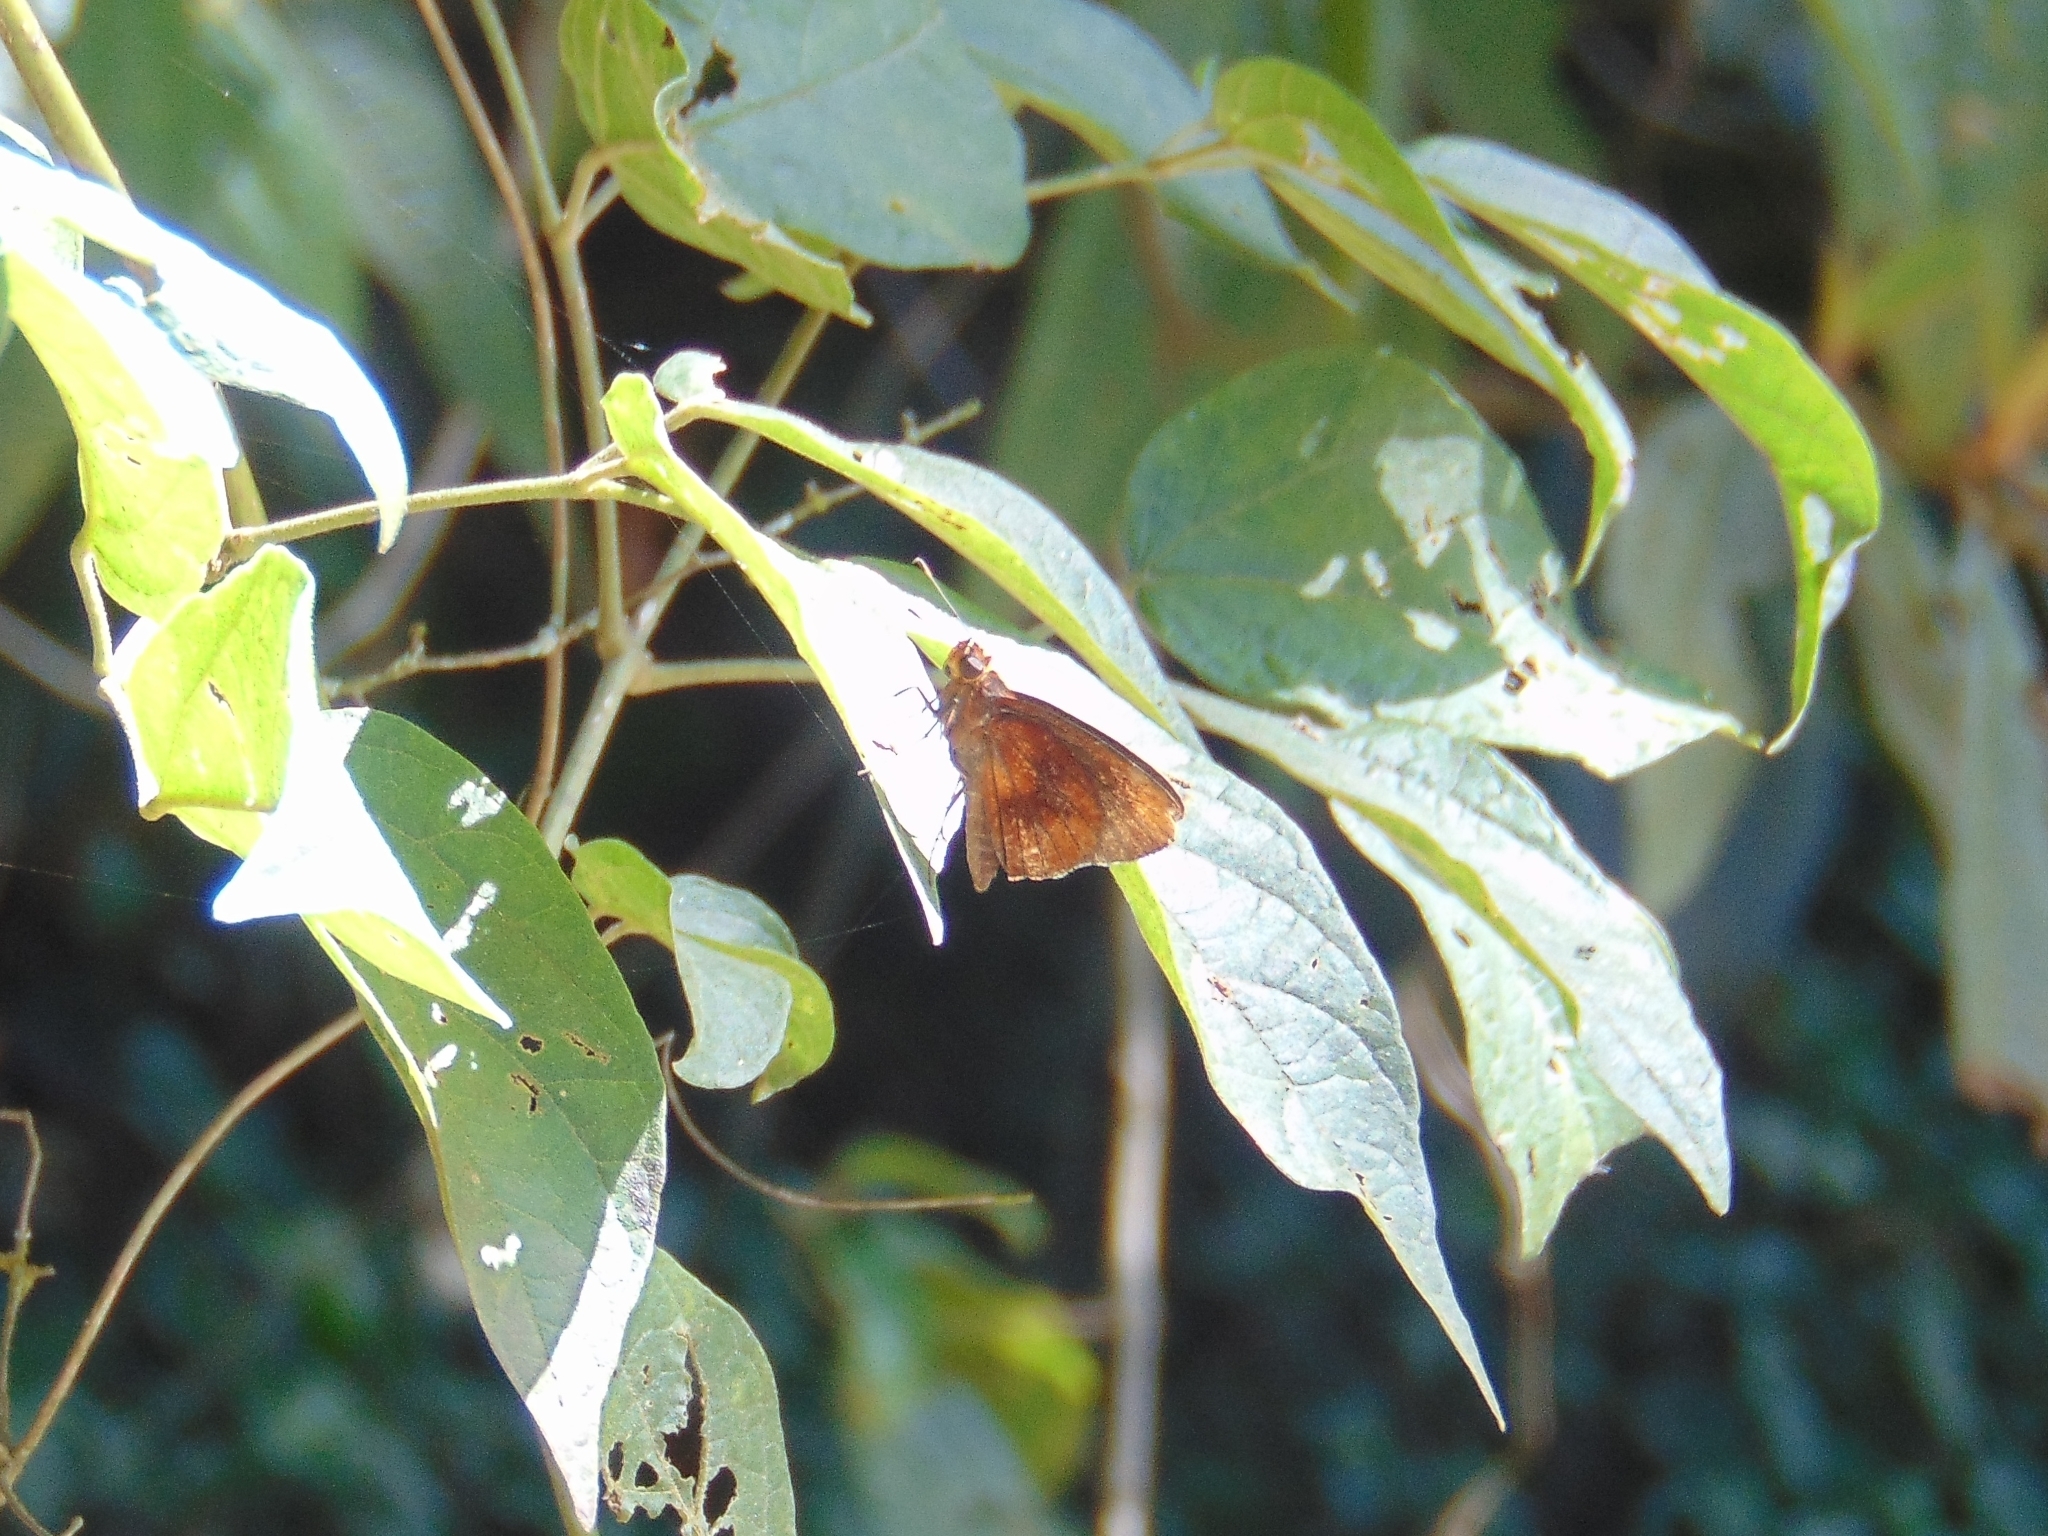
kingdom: Animalia
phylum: Arthropoda
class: Insecta
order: Lepidoptera
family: Hesperiidae
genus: Miltomiges
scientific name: Miltomiges cinnamomea
